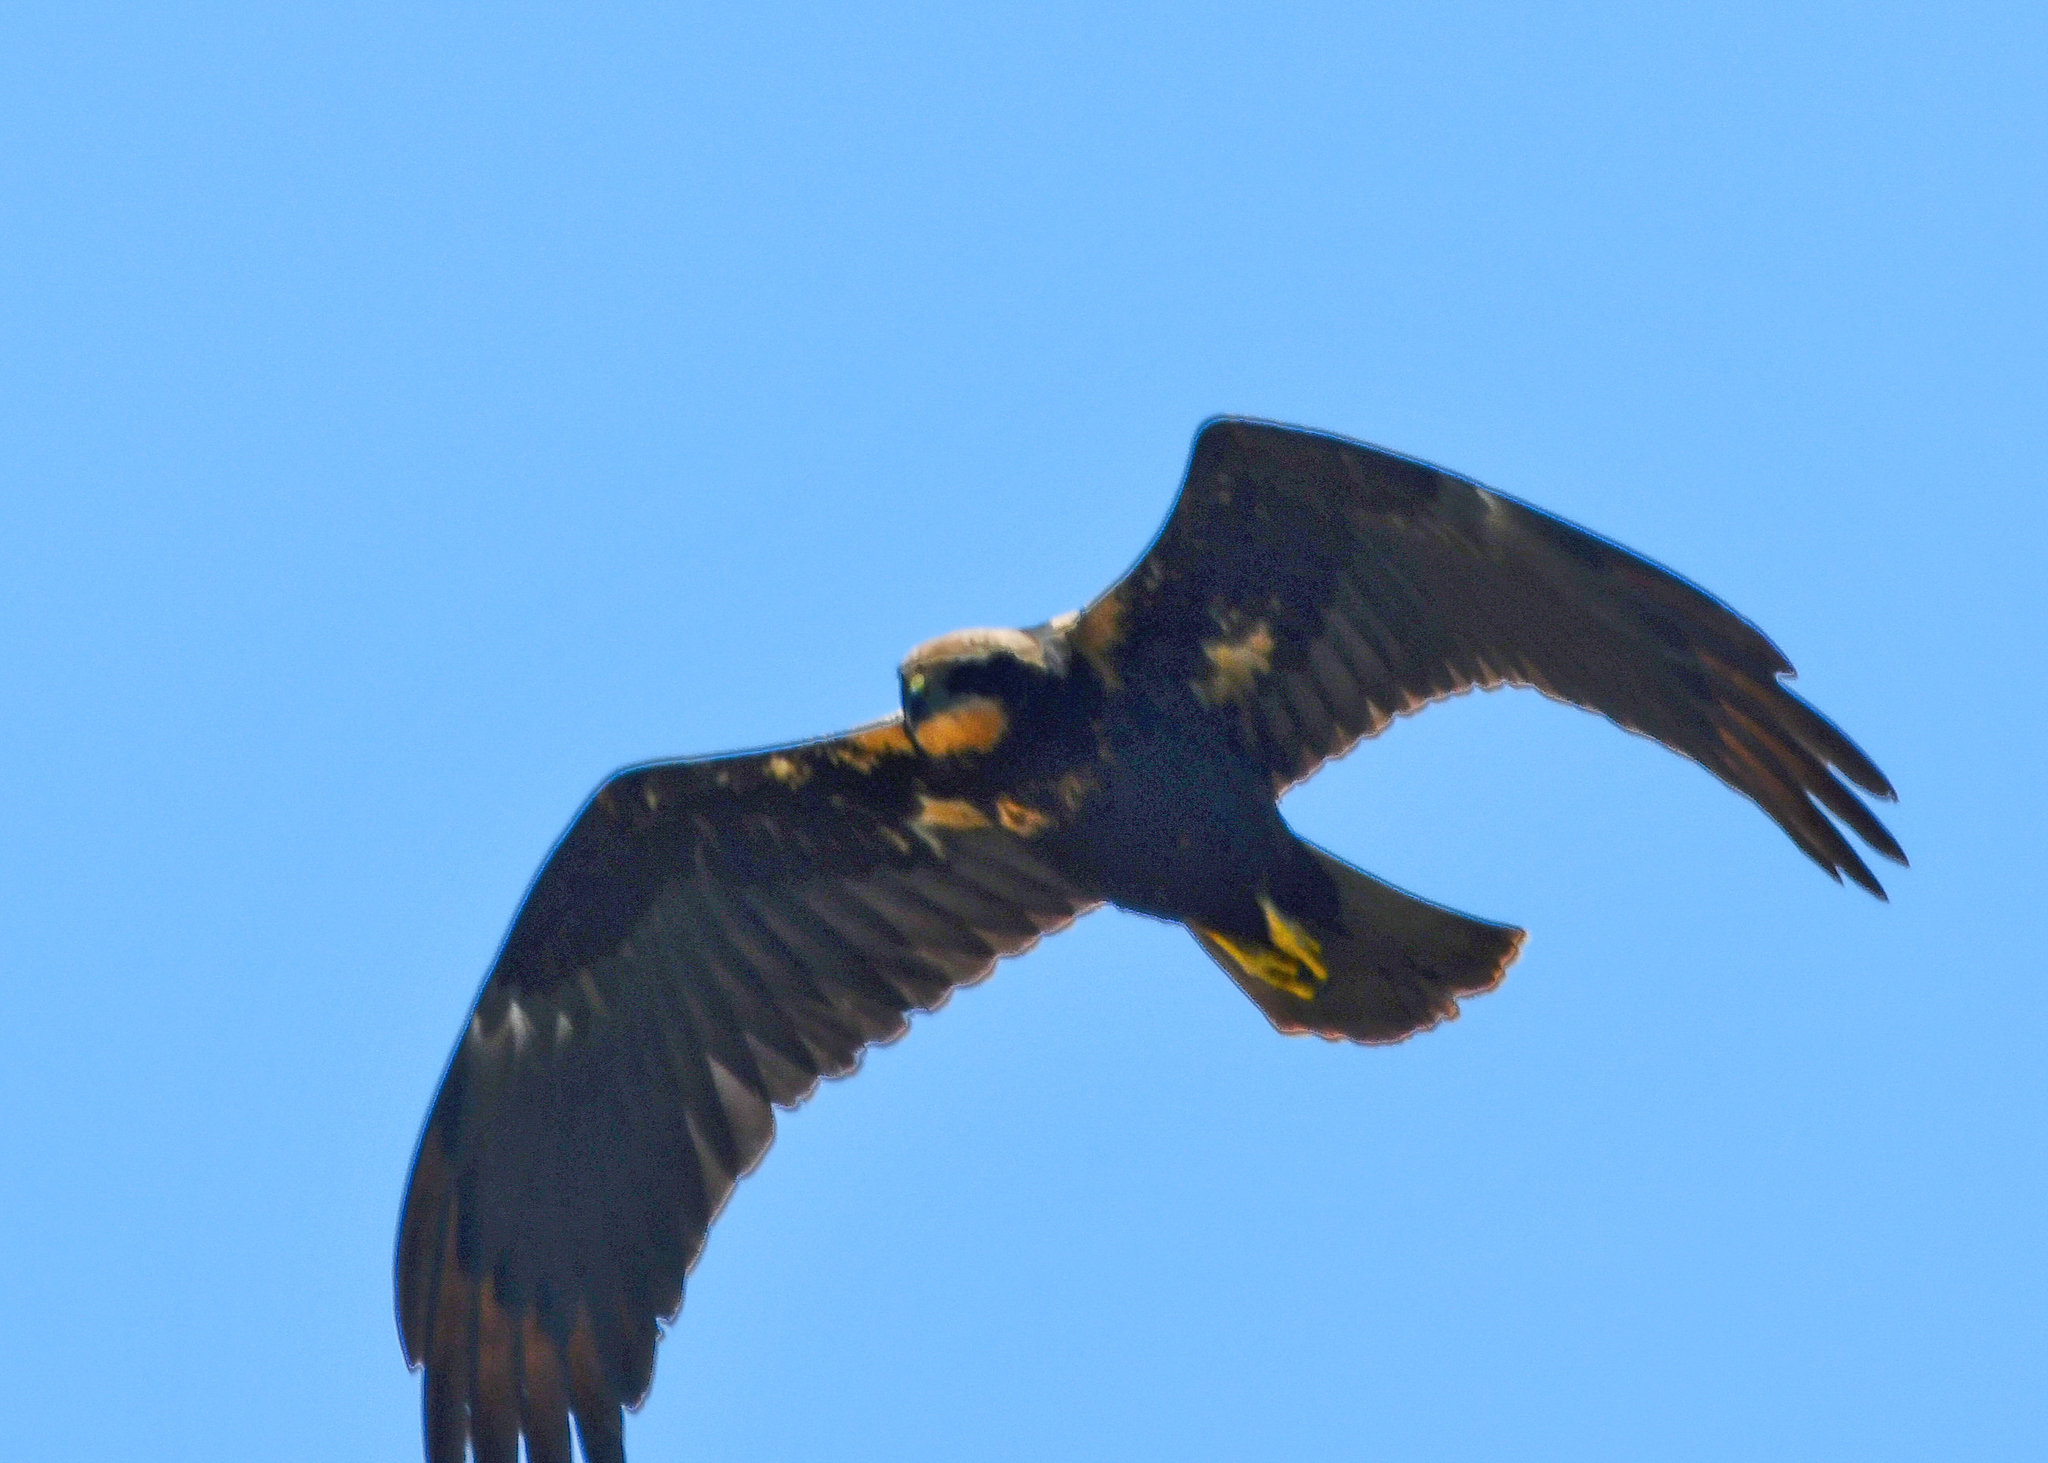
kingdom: Animalia
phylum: Chordata
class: Aves
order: Accipitriformes
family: Accipitridae
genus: Circus
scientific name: Circus aeruginosus
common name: Western marsh harrier
